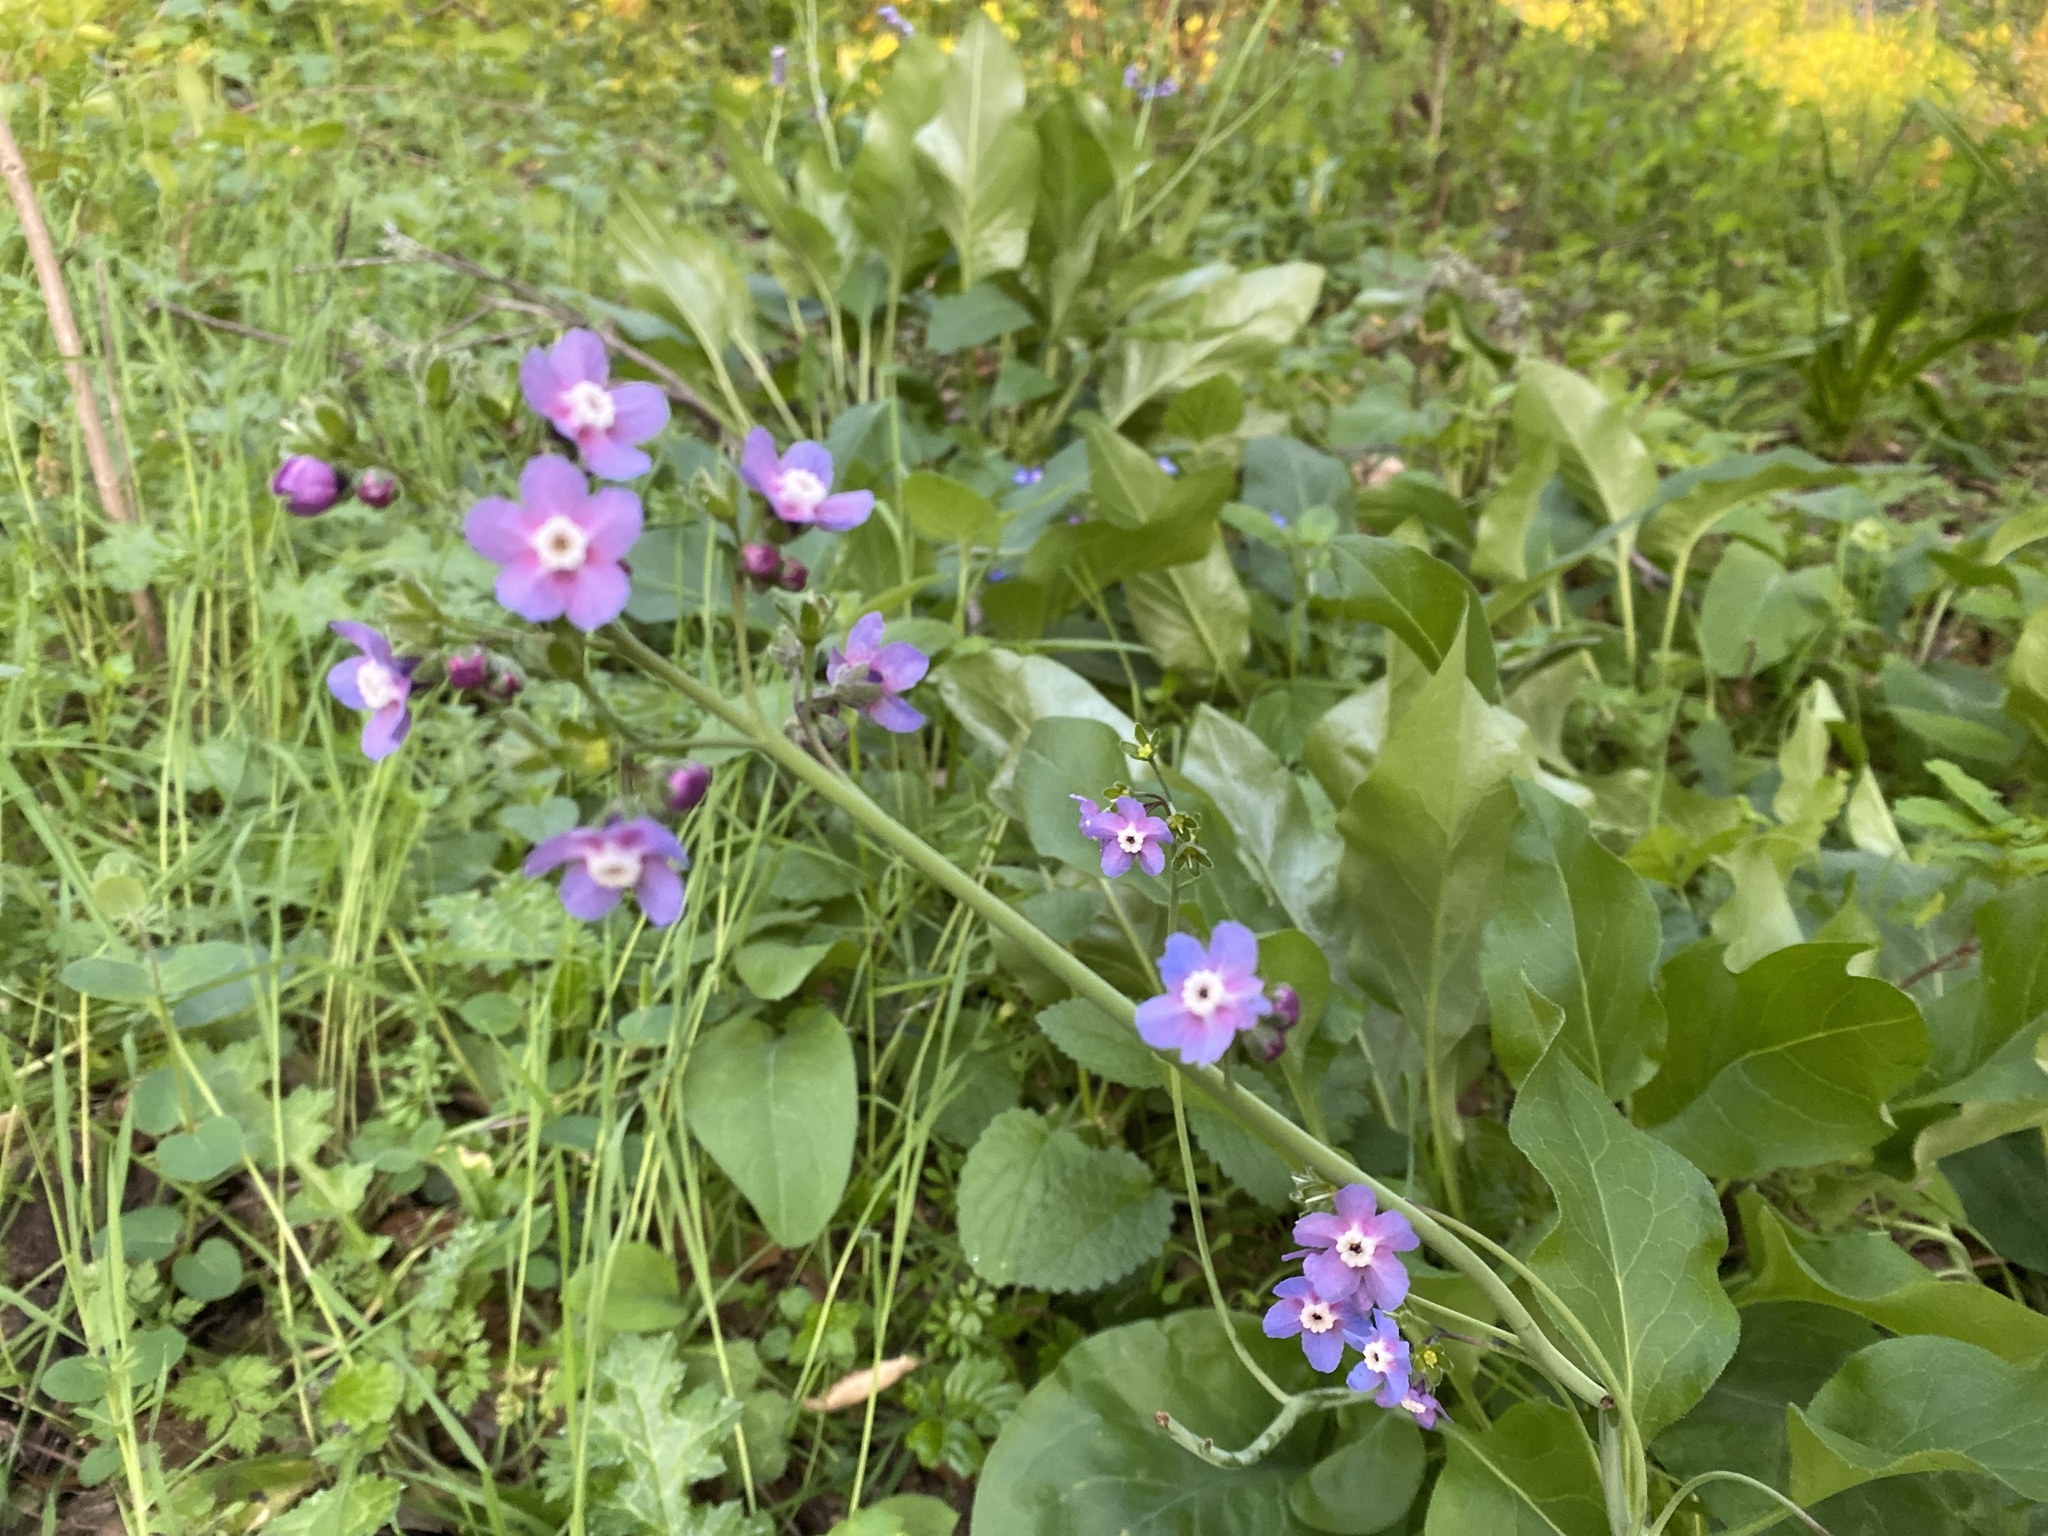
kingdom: Plantae
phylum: Tracheophyta
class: Magnoliopsida
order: Boraginales
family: Boraginaceae
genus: Adelinia
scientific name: Adelinia grande
